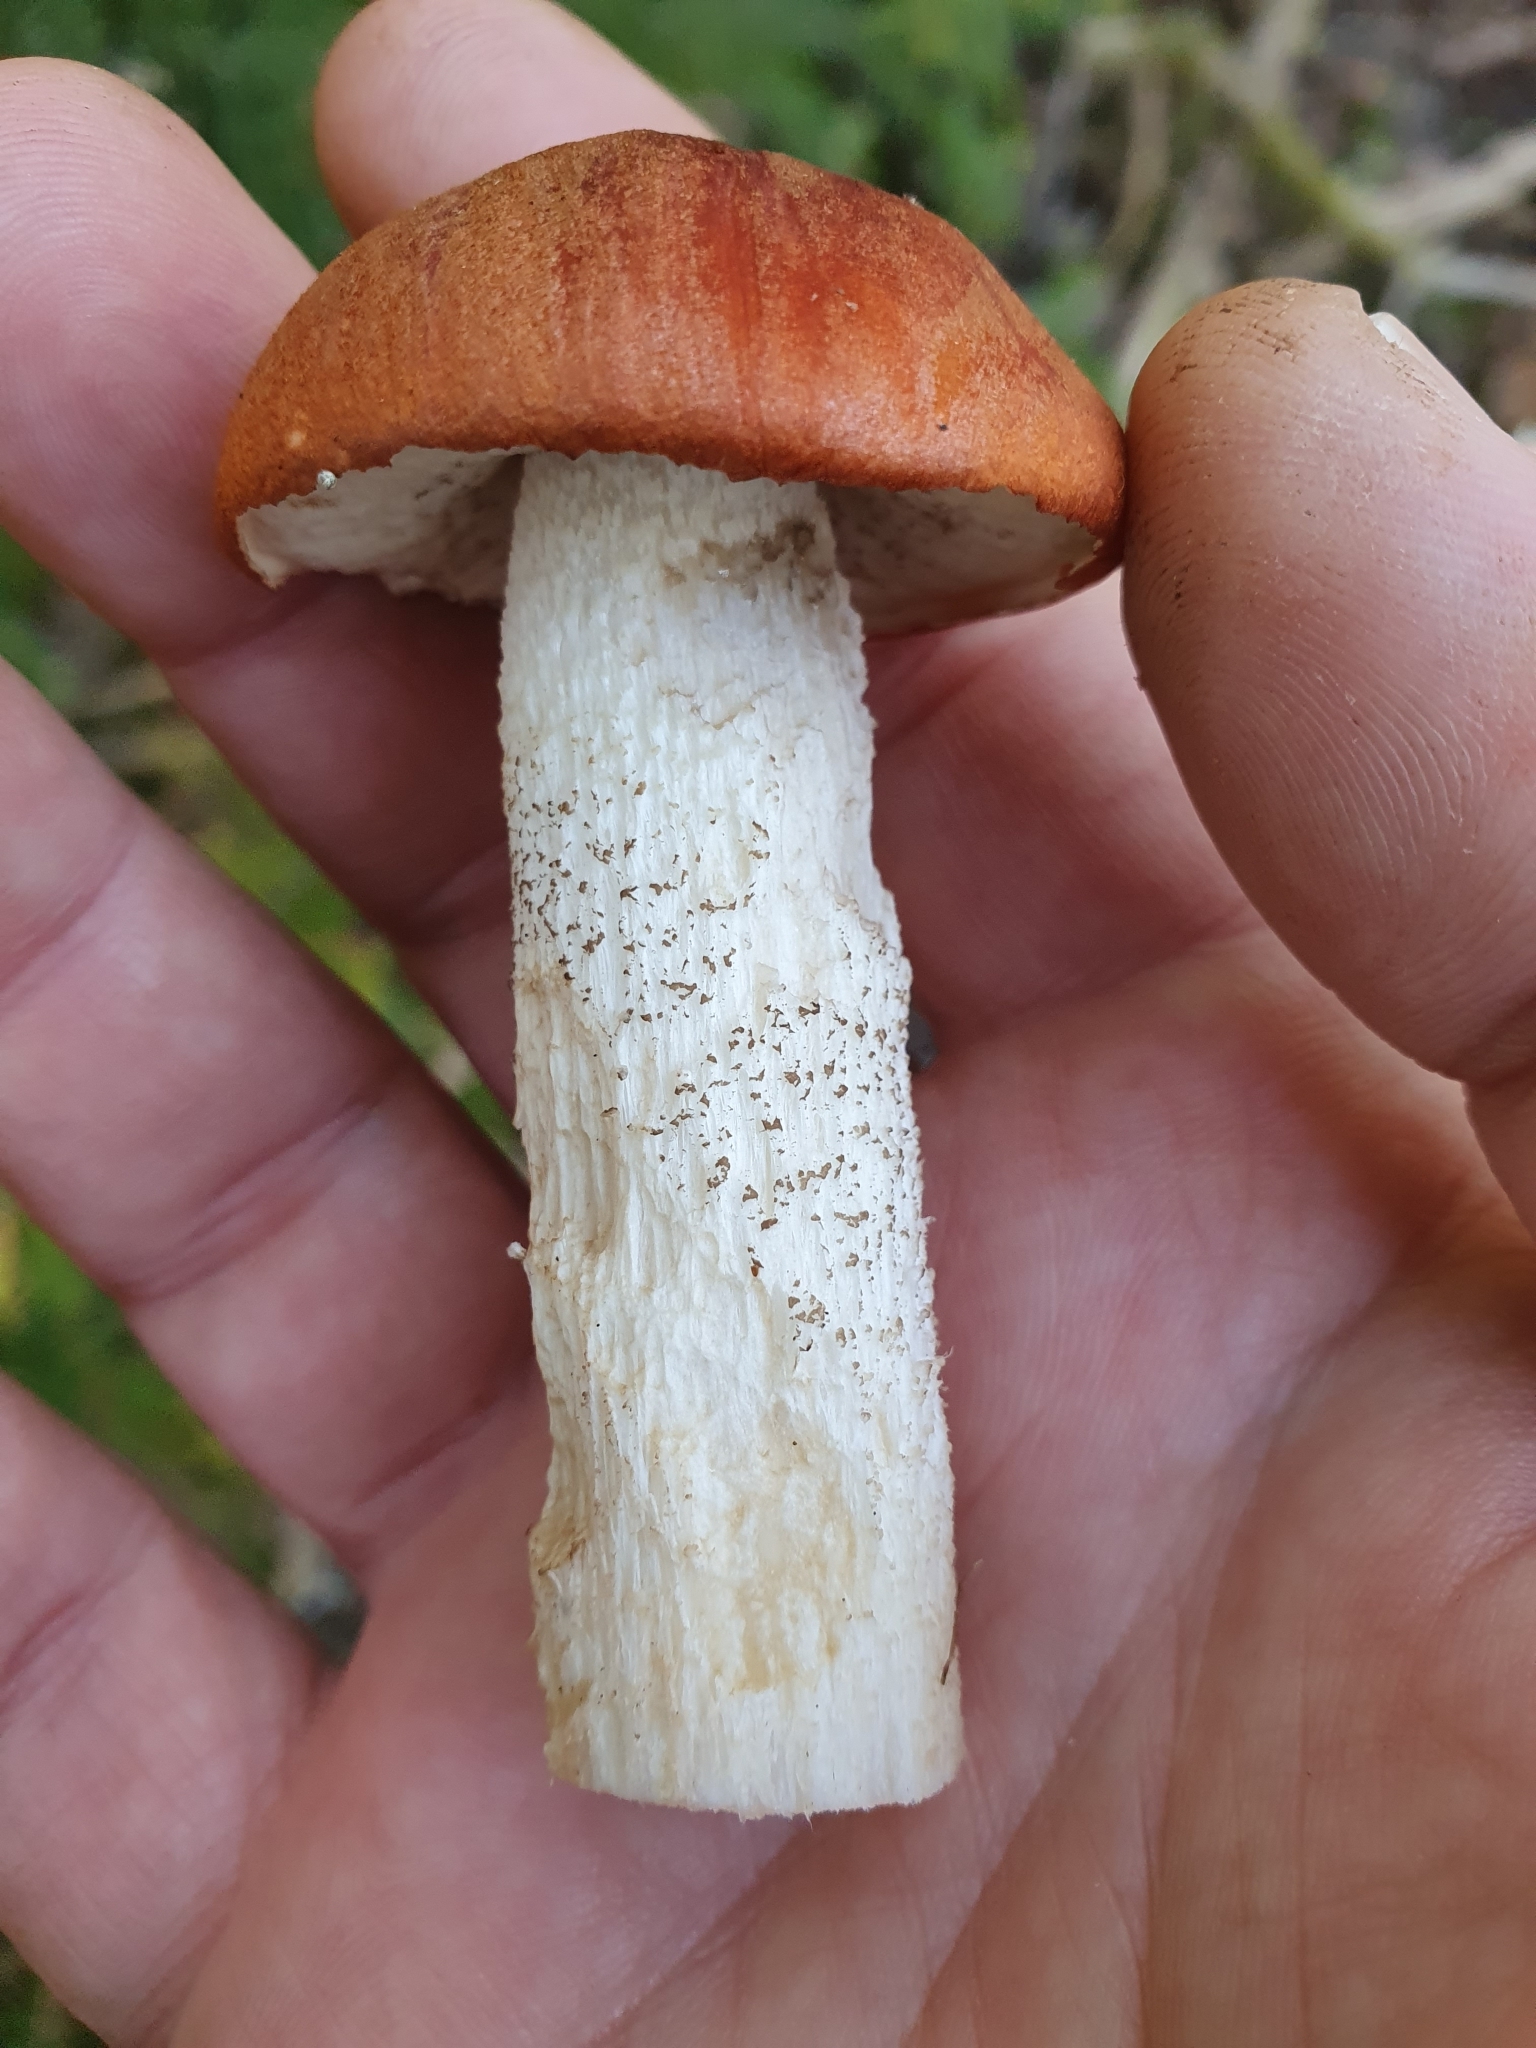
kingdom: Fungi
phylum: Basidiomycota
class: Agaricomycetes
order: Boletales
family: Boletaceae
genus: Leccinum
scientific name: Leccinum albostipitatum
